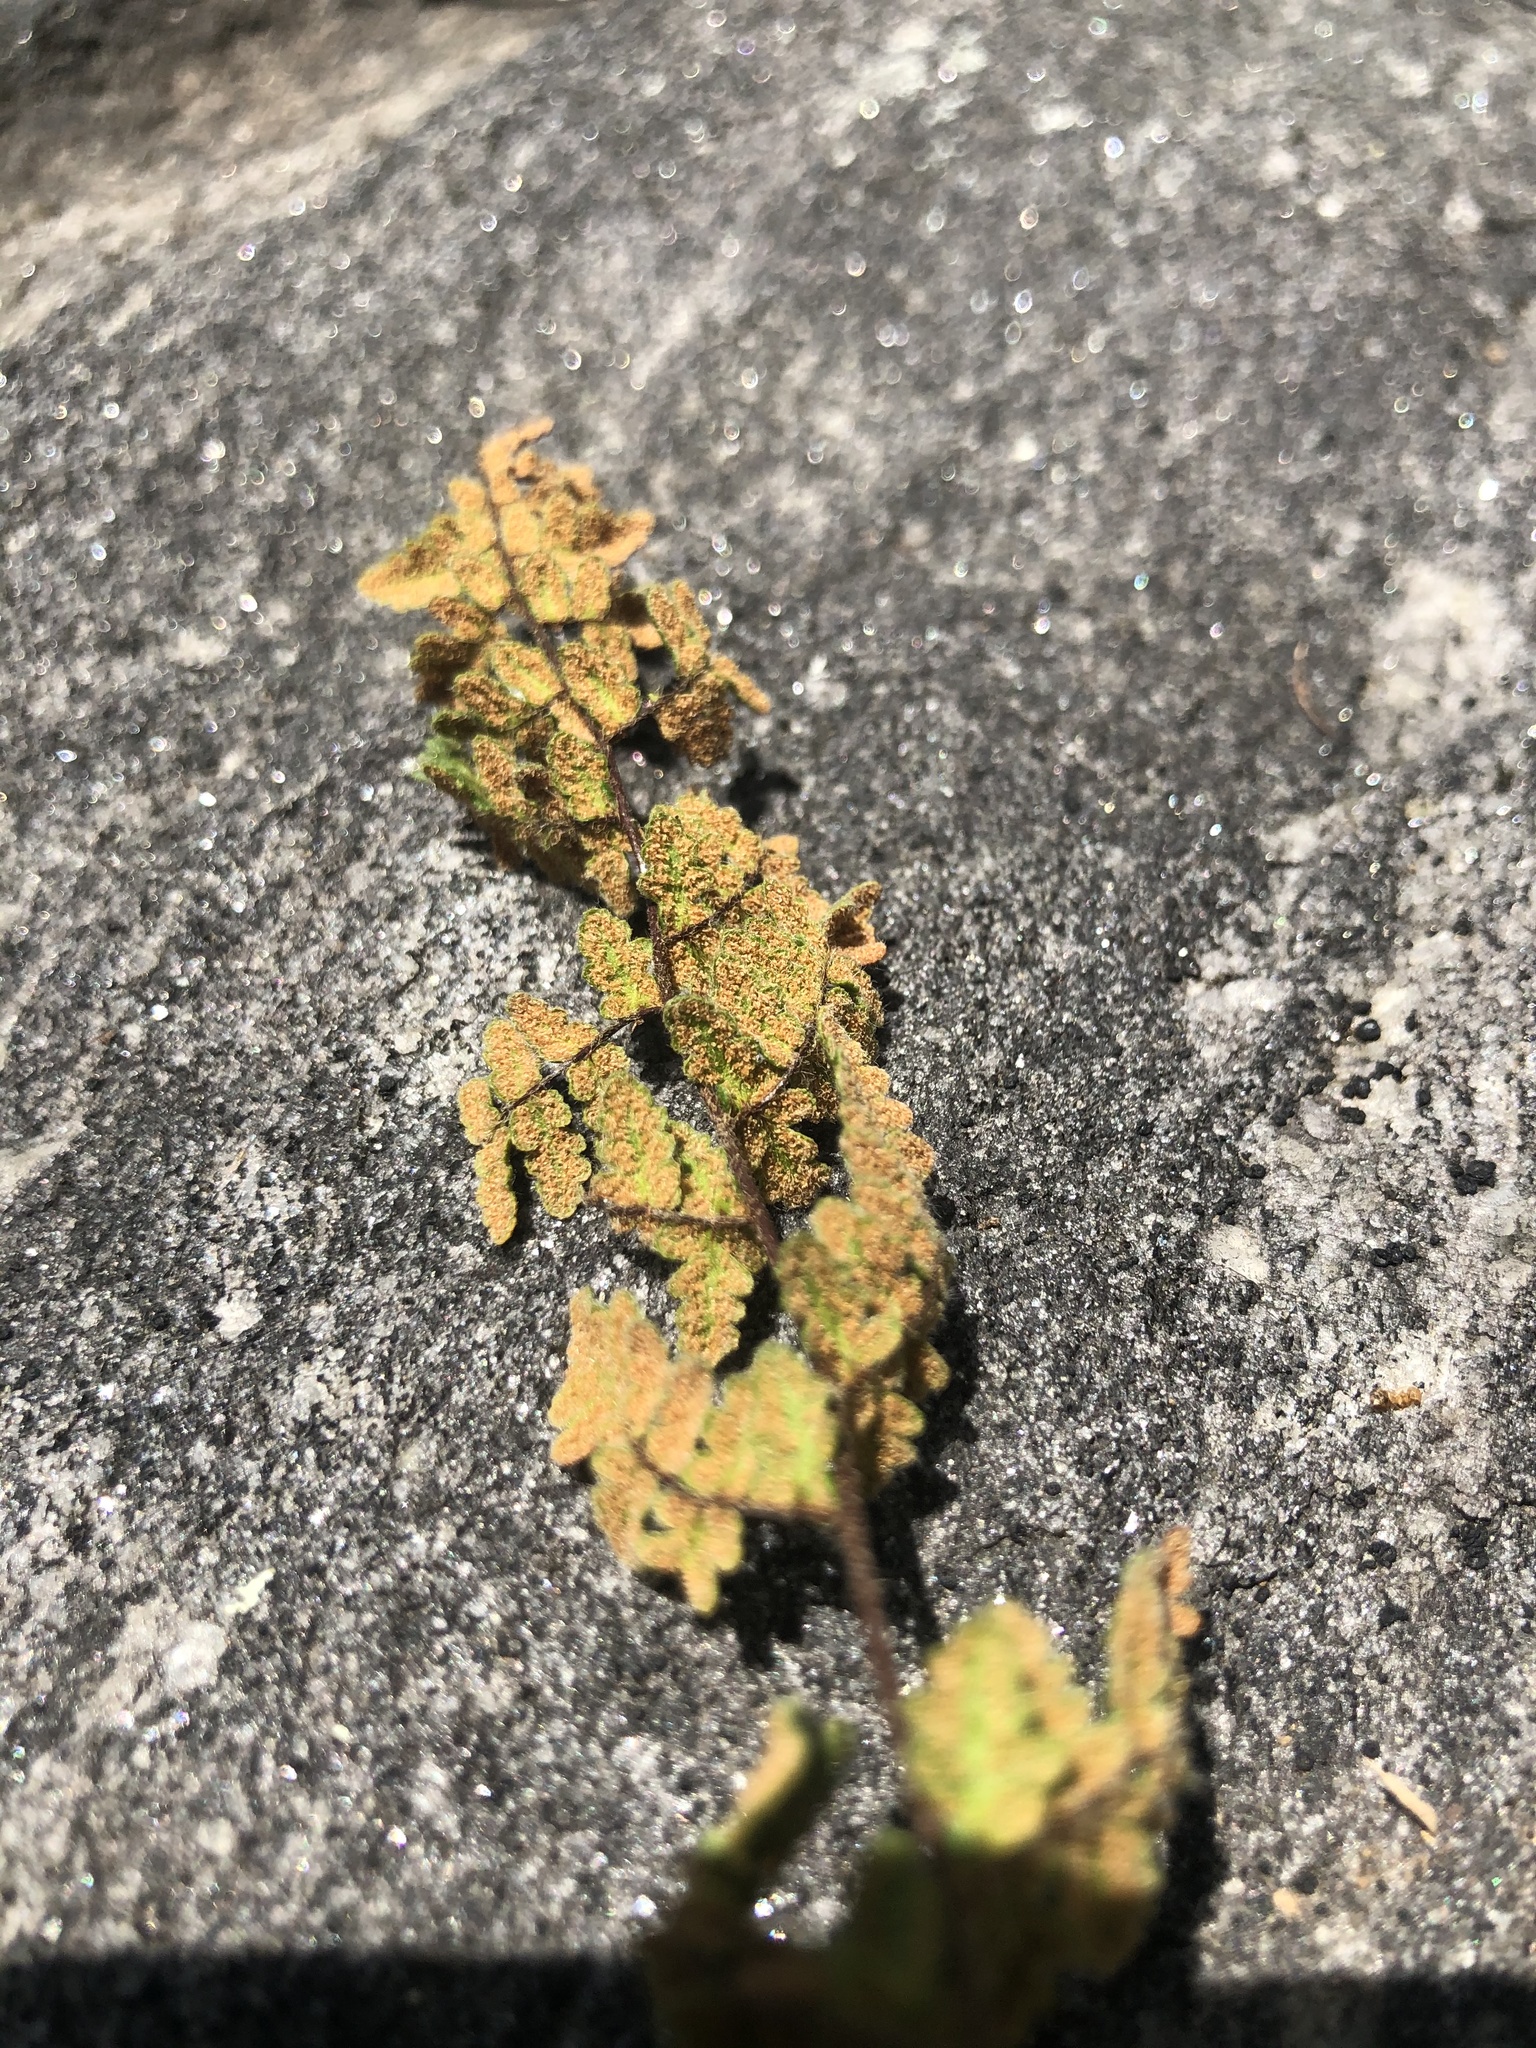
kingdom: Plantae
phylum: Tracheophyta
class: Polypodiopsida
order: Polypodiales
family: Pteridaceae
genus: Myriopteris
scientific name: Myriopteris lanosa
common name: Hairy lip fern
